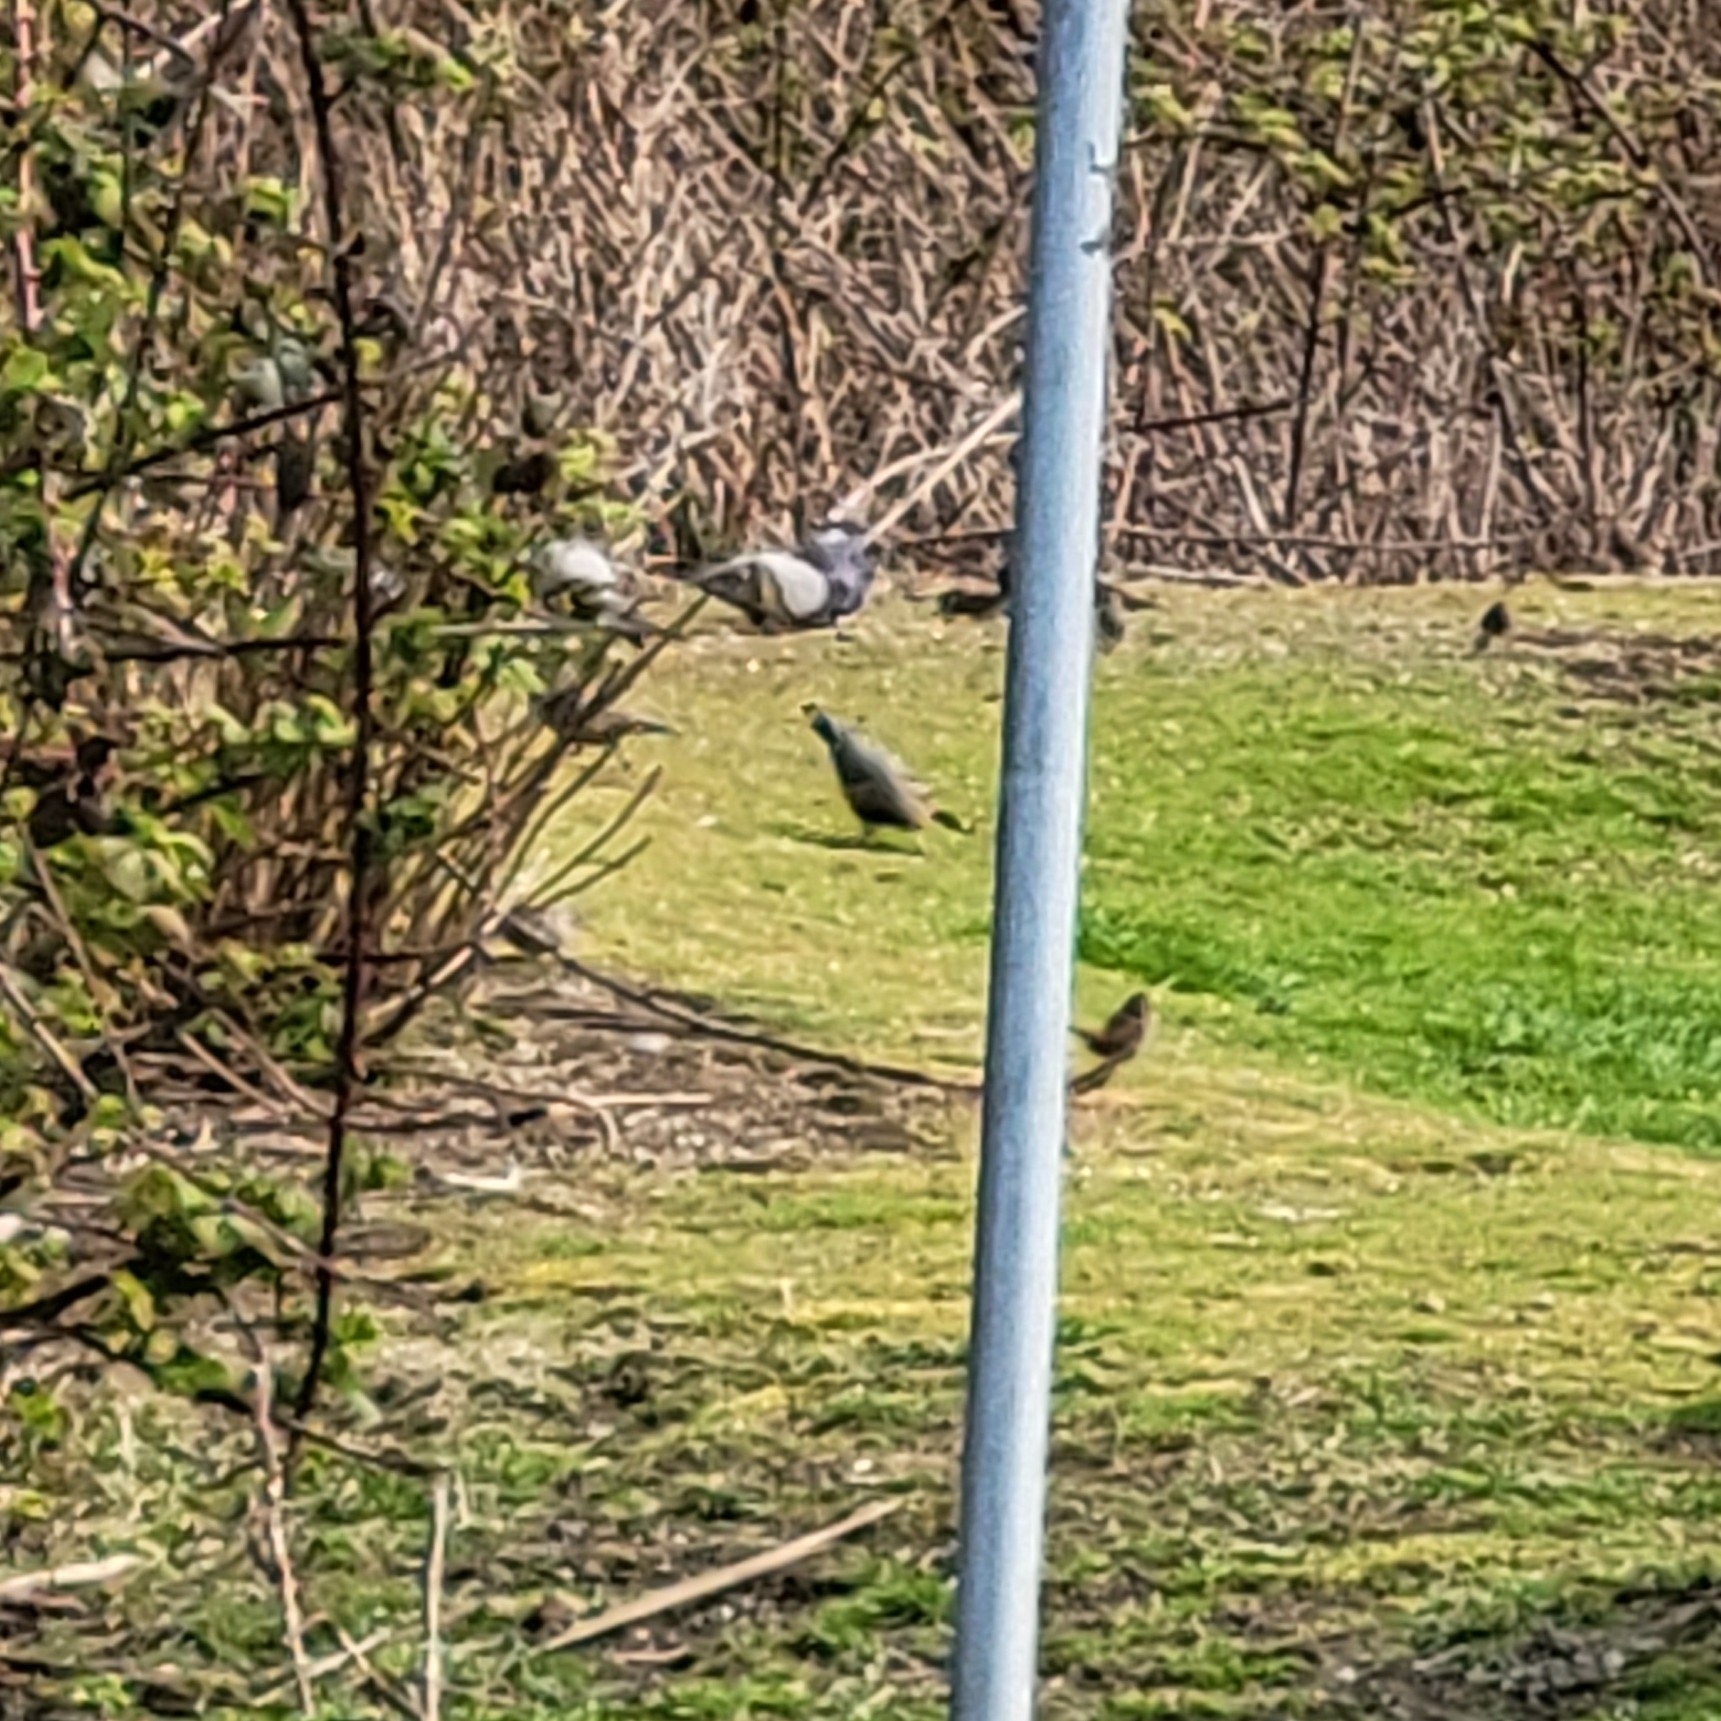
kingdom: Animalia
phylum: Chordata
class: Aves
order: Galliformes
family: Odontophoridae
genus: Callipepla
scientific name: Callipepla californica
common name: California quail
